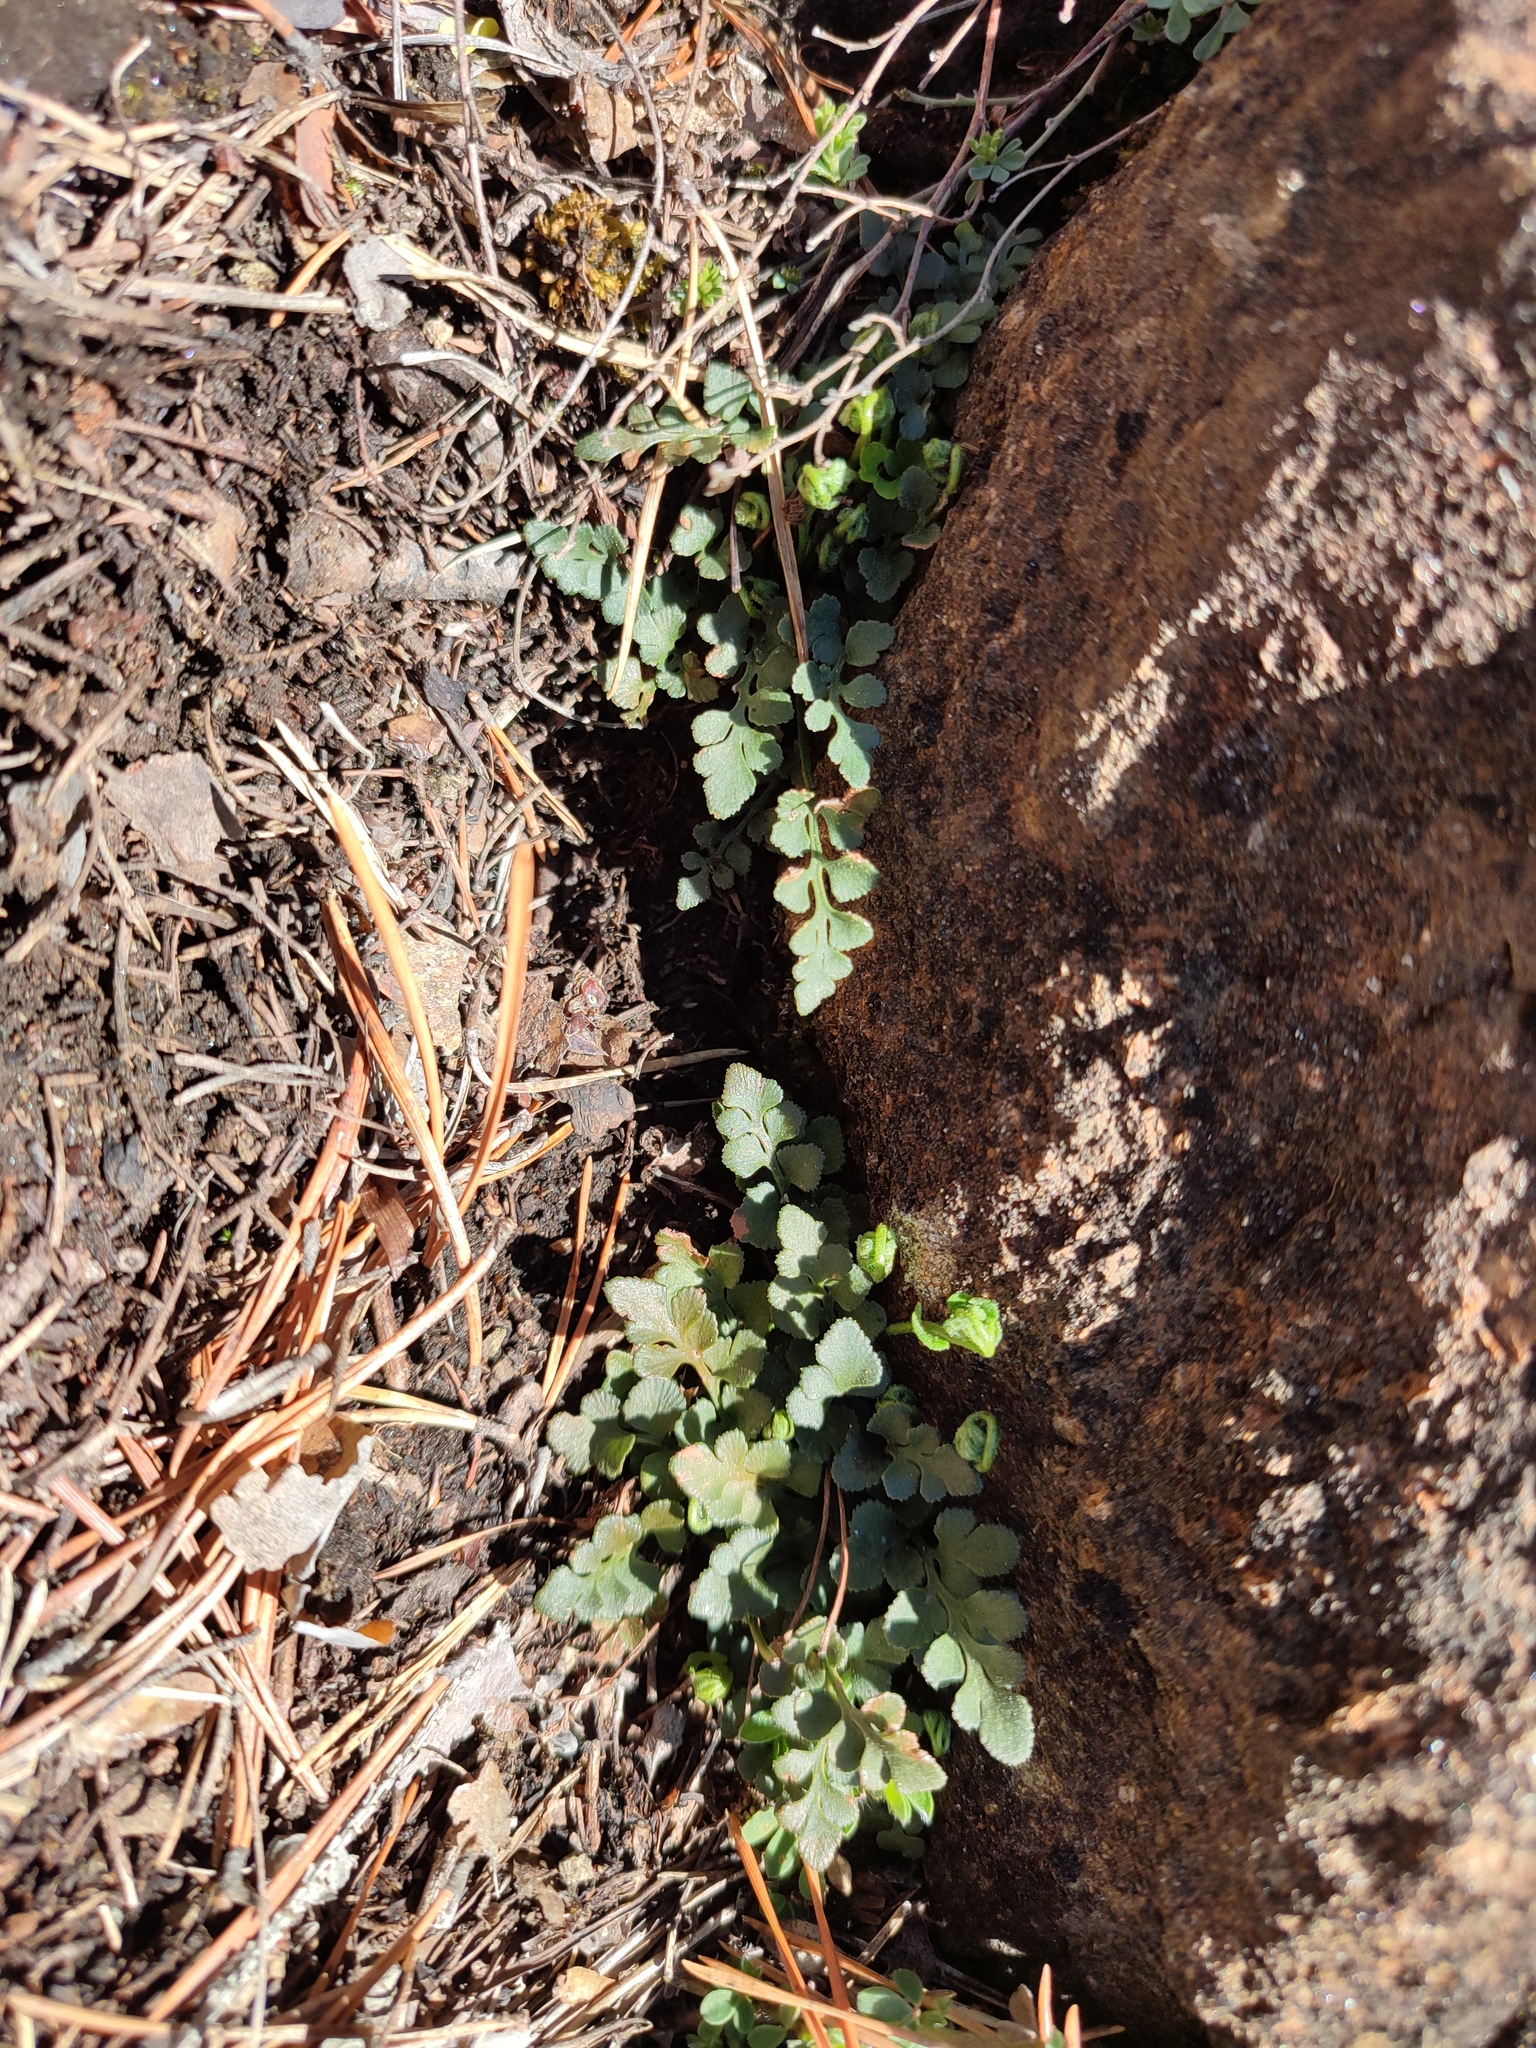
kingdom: Plantae
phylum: Tracheophyta
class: Polypodiopsida
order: Polypodiales
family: Aspleniaceae
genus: Asplenium
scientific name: Asplenium ruta-muraria
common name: Wall-rue
